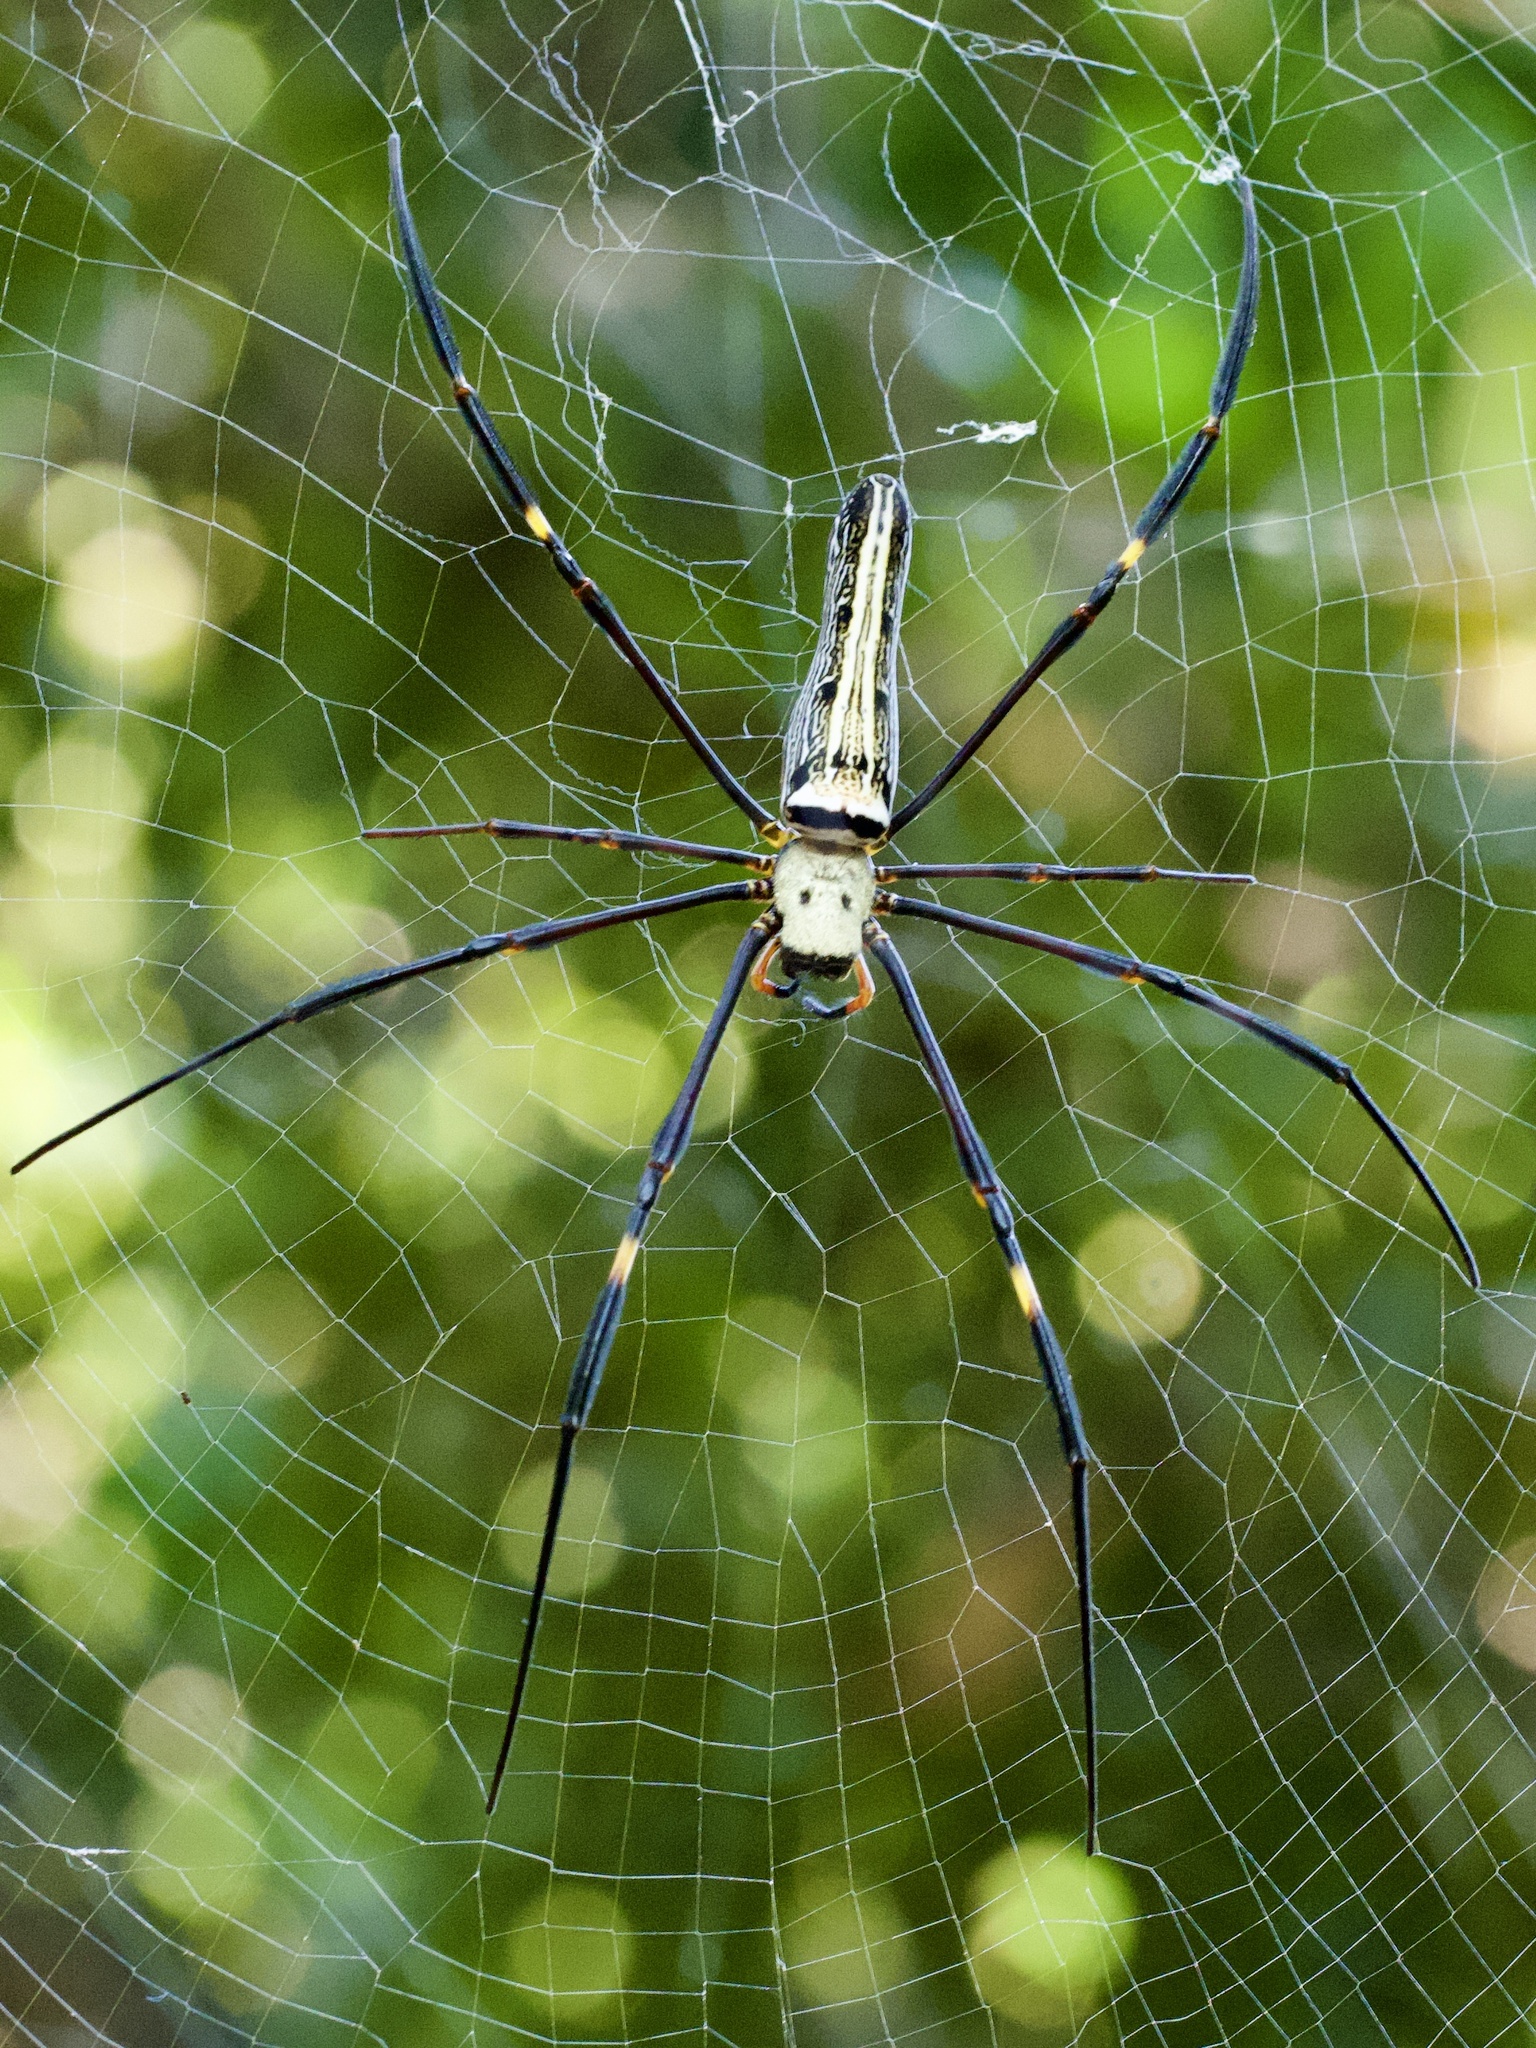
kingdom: Animalia
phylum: Arthropoda
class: Arachnida
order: Araneae
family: Araneidae
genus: Nephila
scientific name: Nephila pilipes
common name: Giant golden orb weaver
